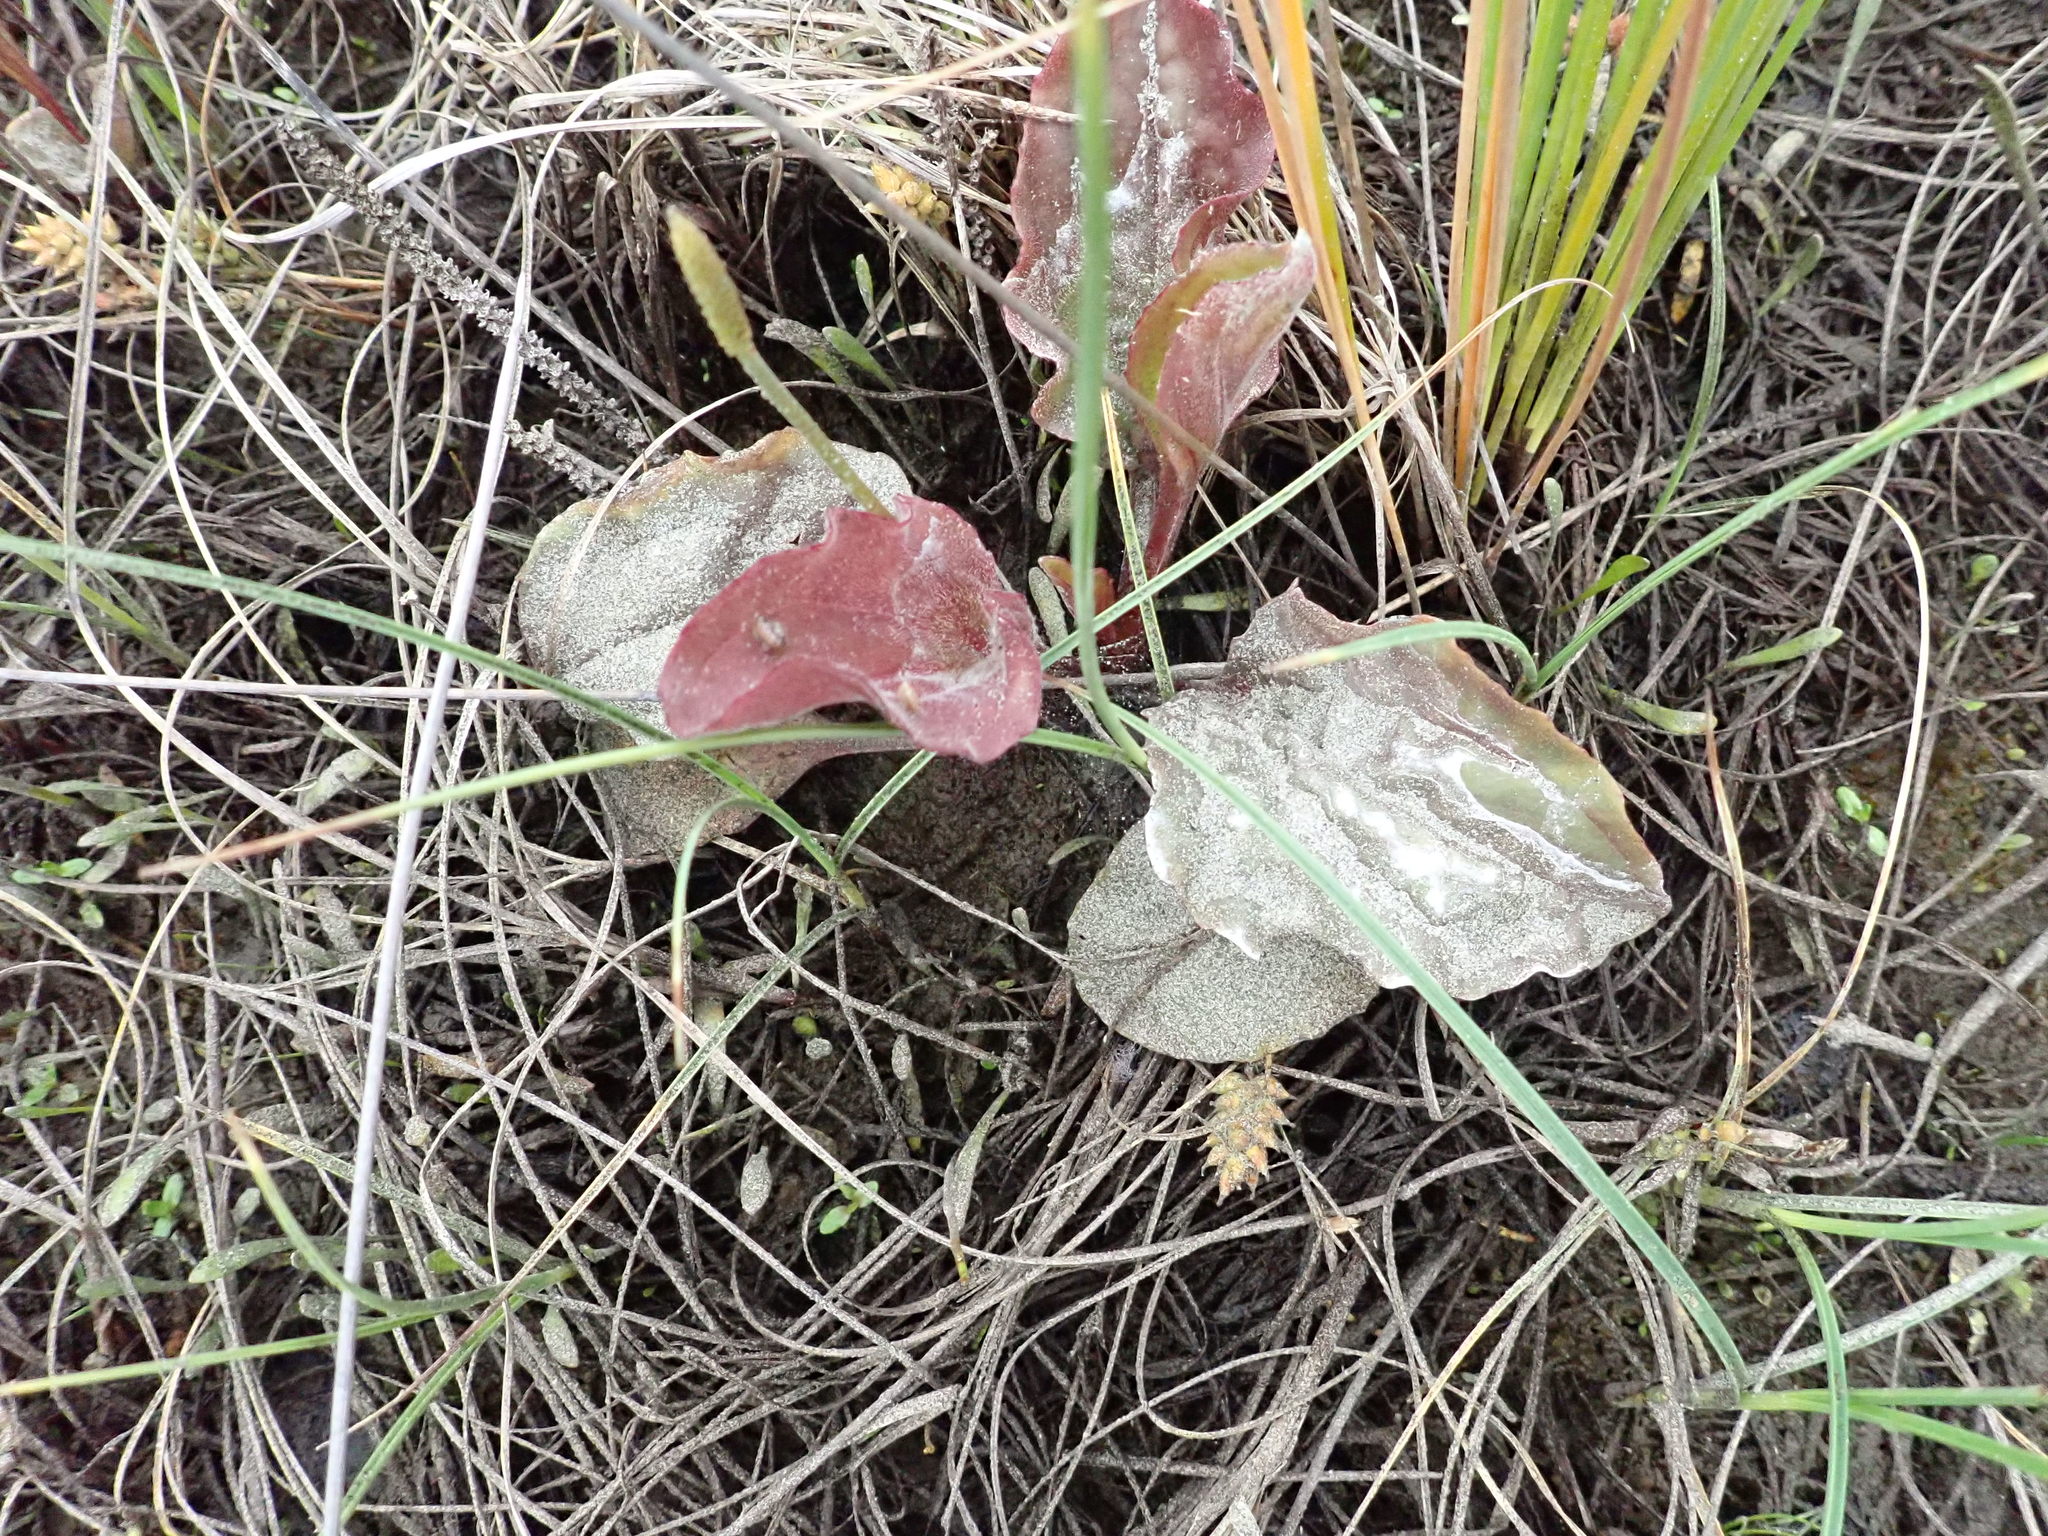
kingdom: Plantae
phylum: Tracheophyta
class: Magnoliopsida
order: Lamiales
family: Plantaginaceae
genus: Plantago
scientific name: Plantago australis
